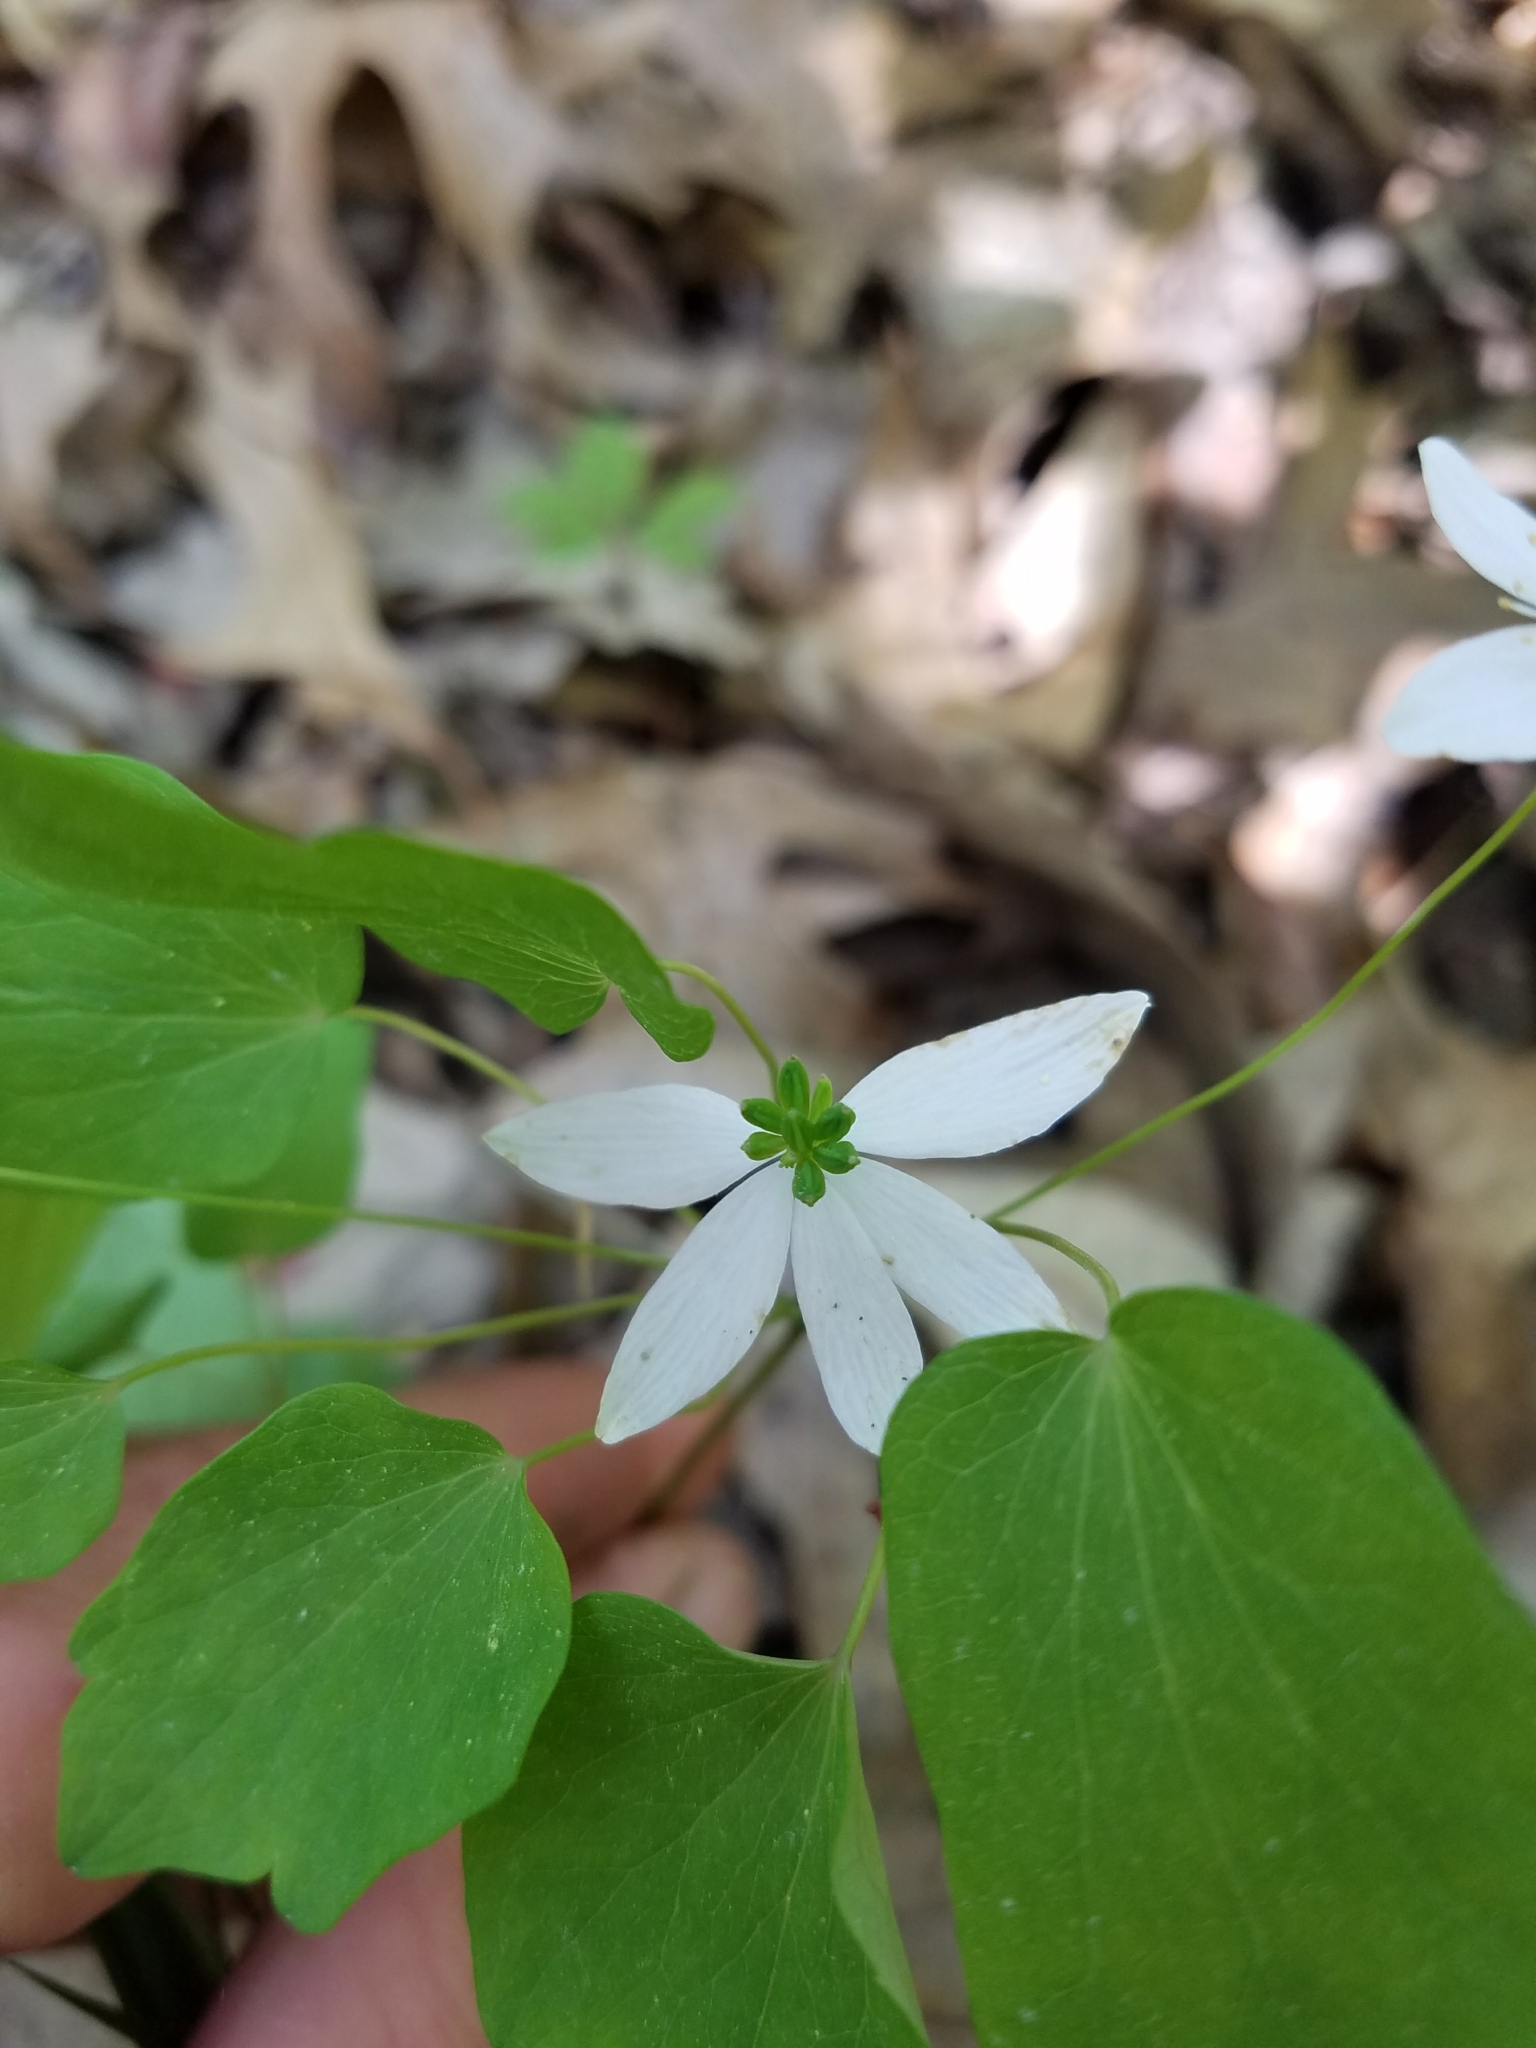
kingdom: Plantae
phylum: Tracheophyta
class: Magnoliopsida
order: Ranunculales
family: Ranunculaceae
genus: Thalictrum
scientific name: Thalictrum thalictroides
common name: Rue-anemone
